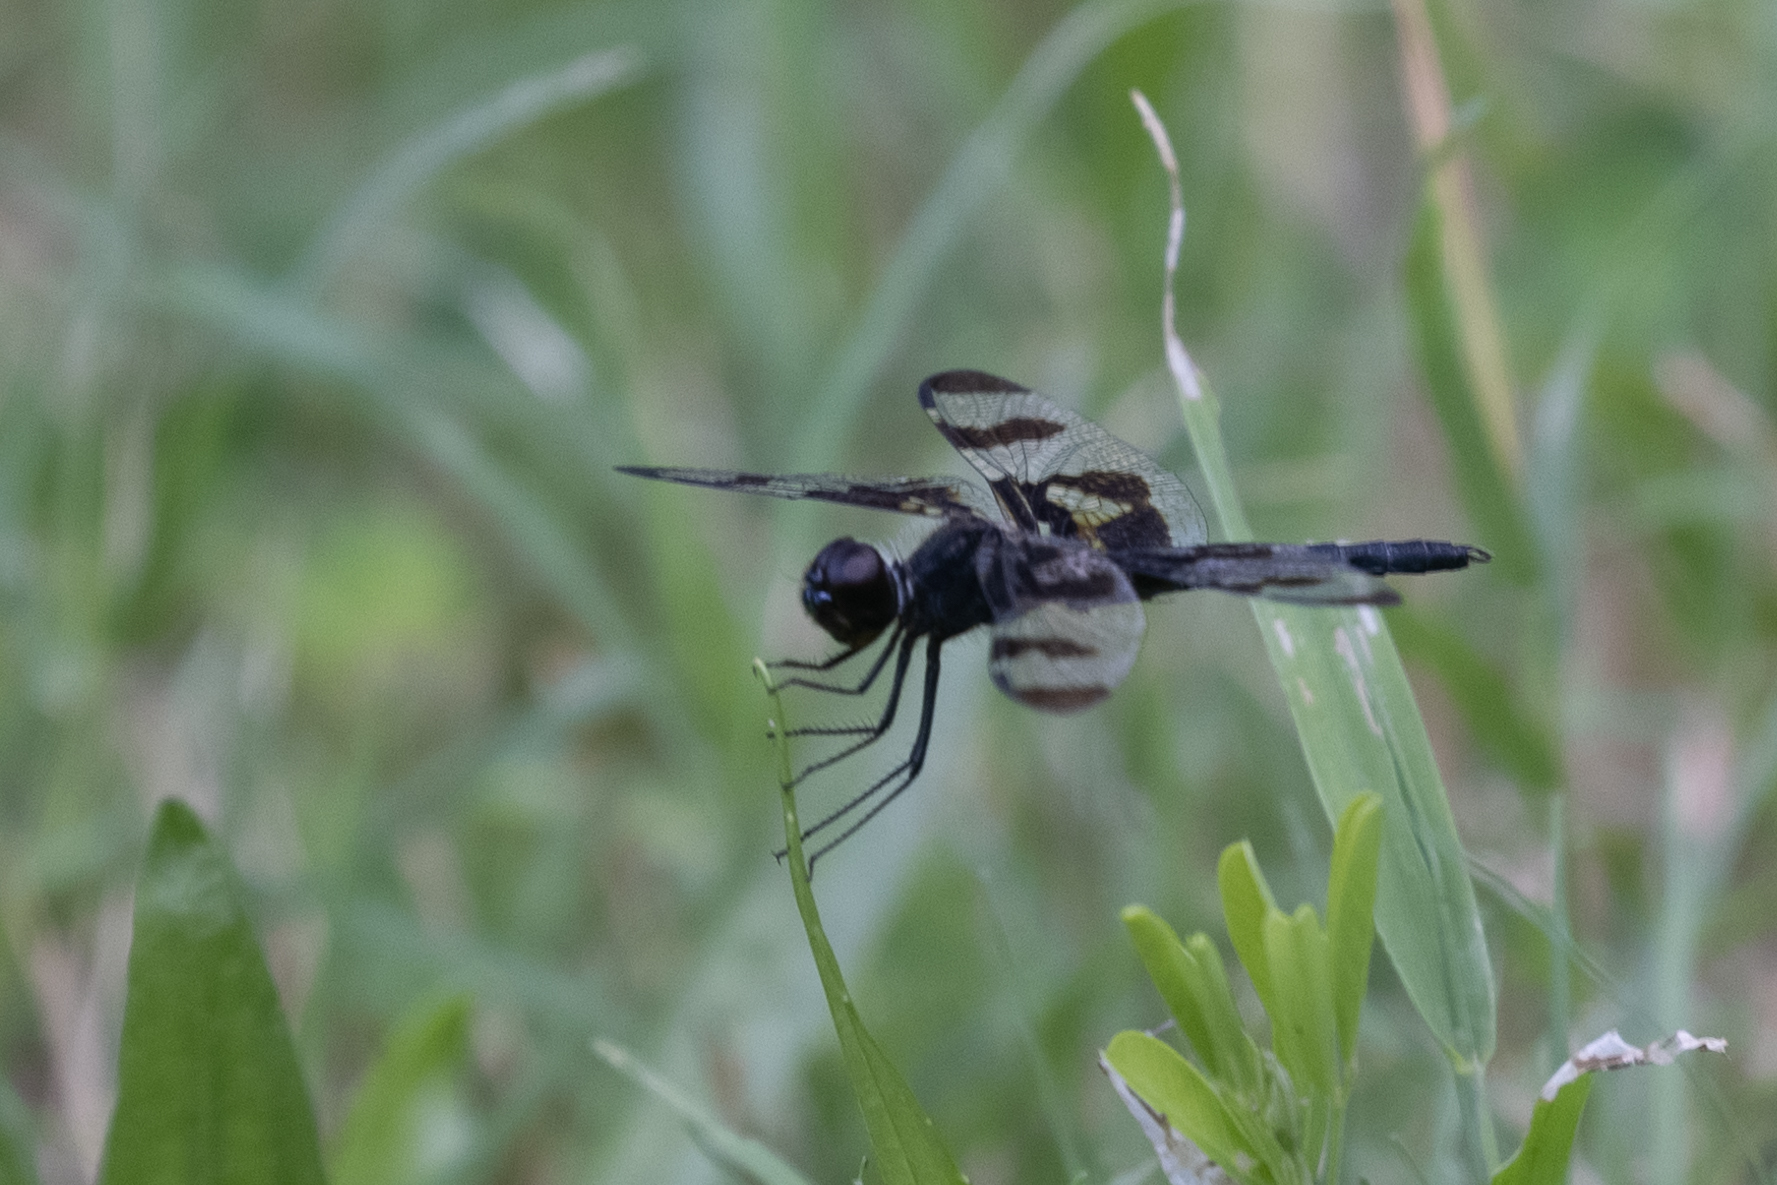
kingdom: Animalia
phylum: Arthropoda
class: Insecta
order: Odonata
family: Libellulidae
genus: Celithemis
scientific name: Celithemis fasciata
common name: Banded pennant
